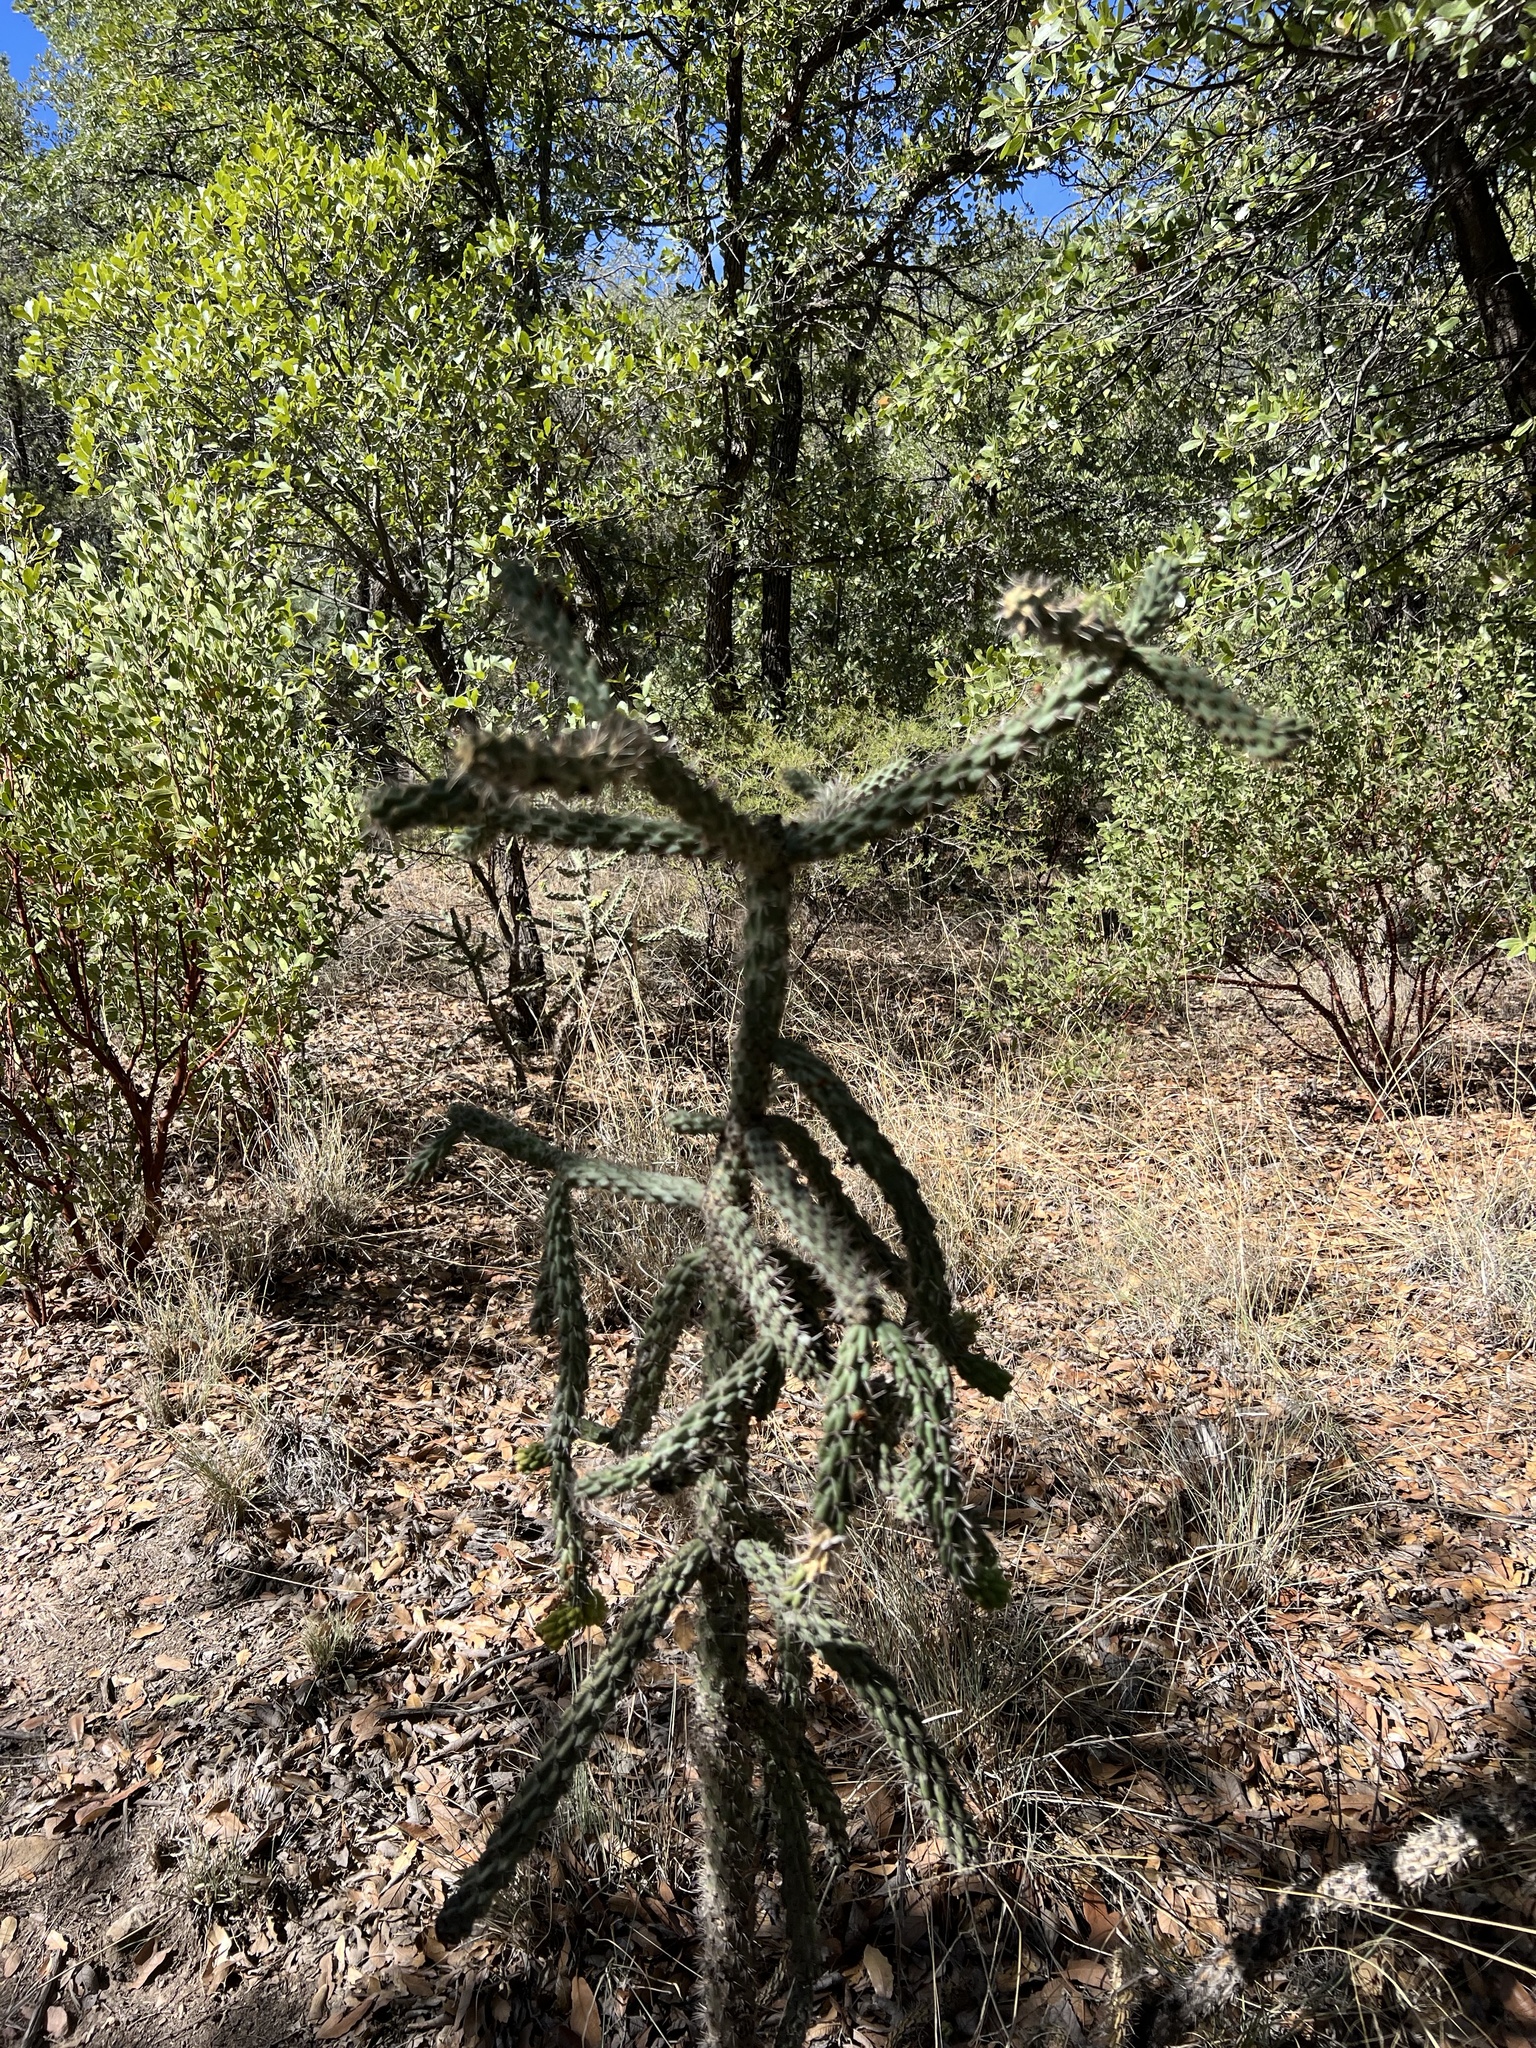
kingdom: Plantae
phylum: Tracheophyta
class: Magnoliopsida
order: Caryophyllales
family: Cactaceae
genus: Cylindropuntia
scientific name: Cylindropuntia imbricata
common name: Candelabrum cactus
